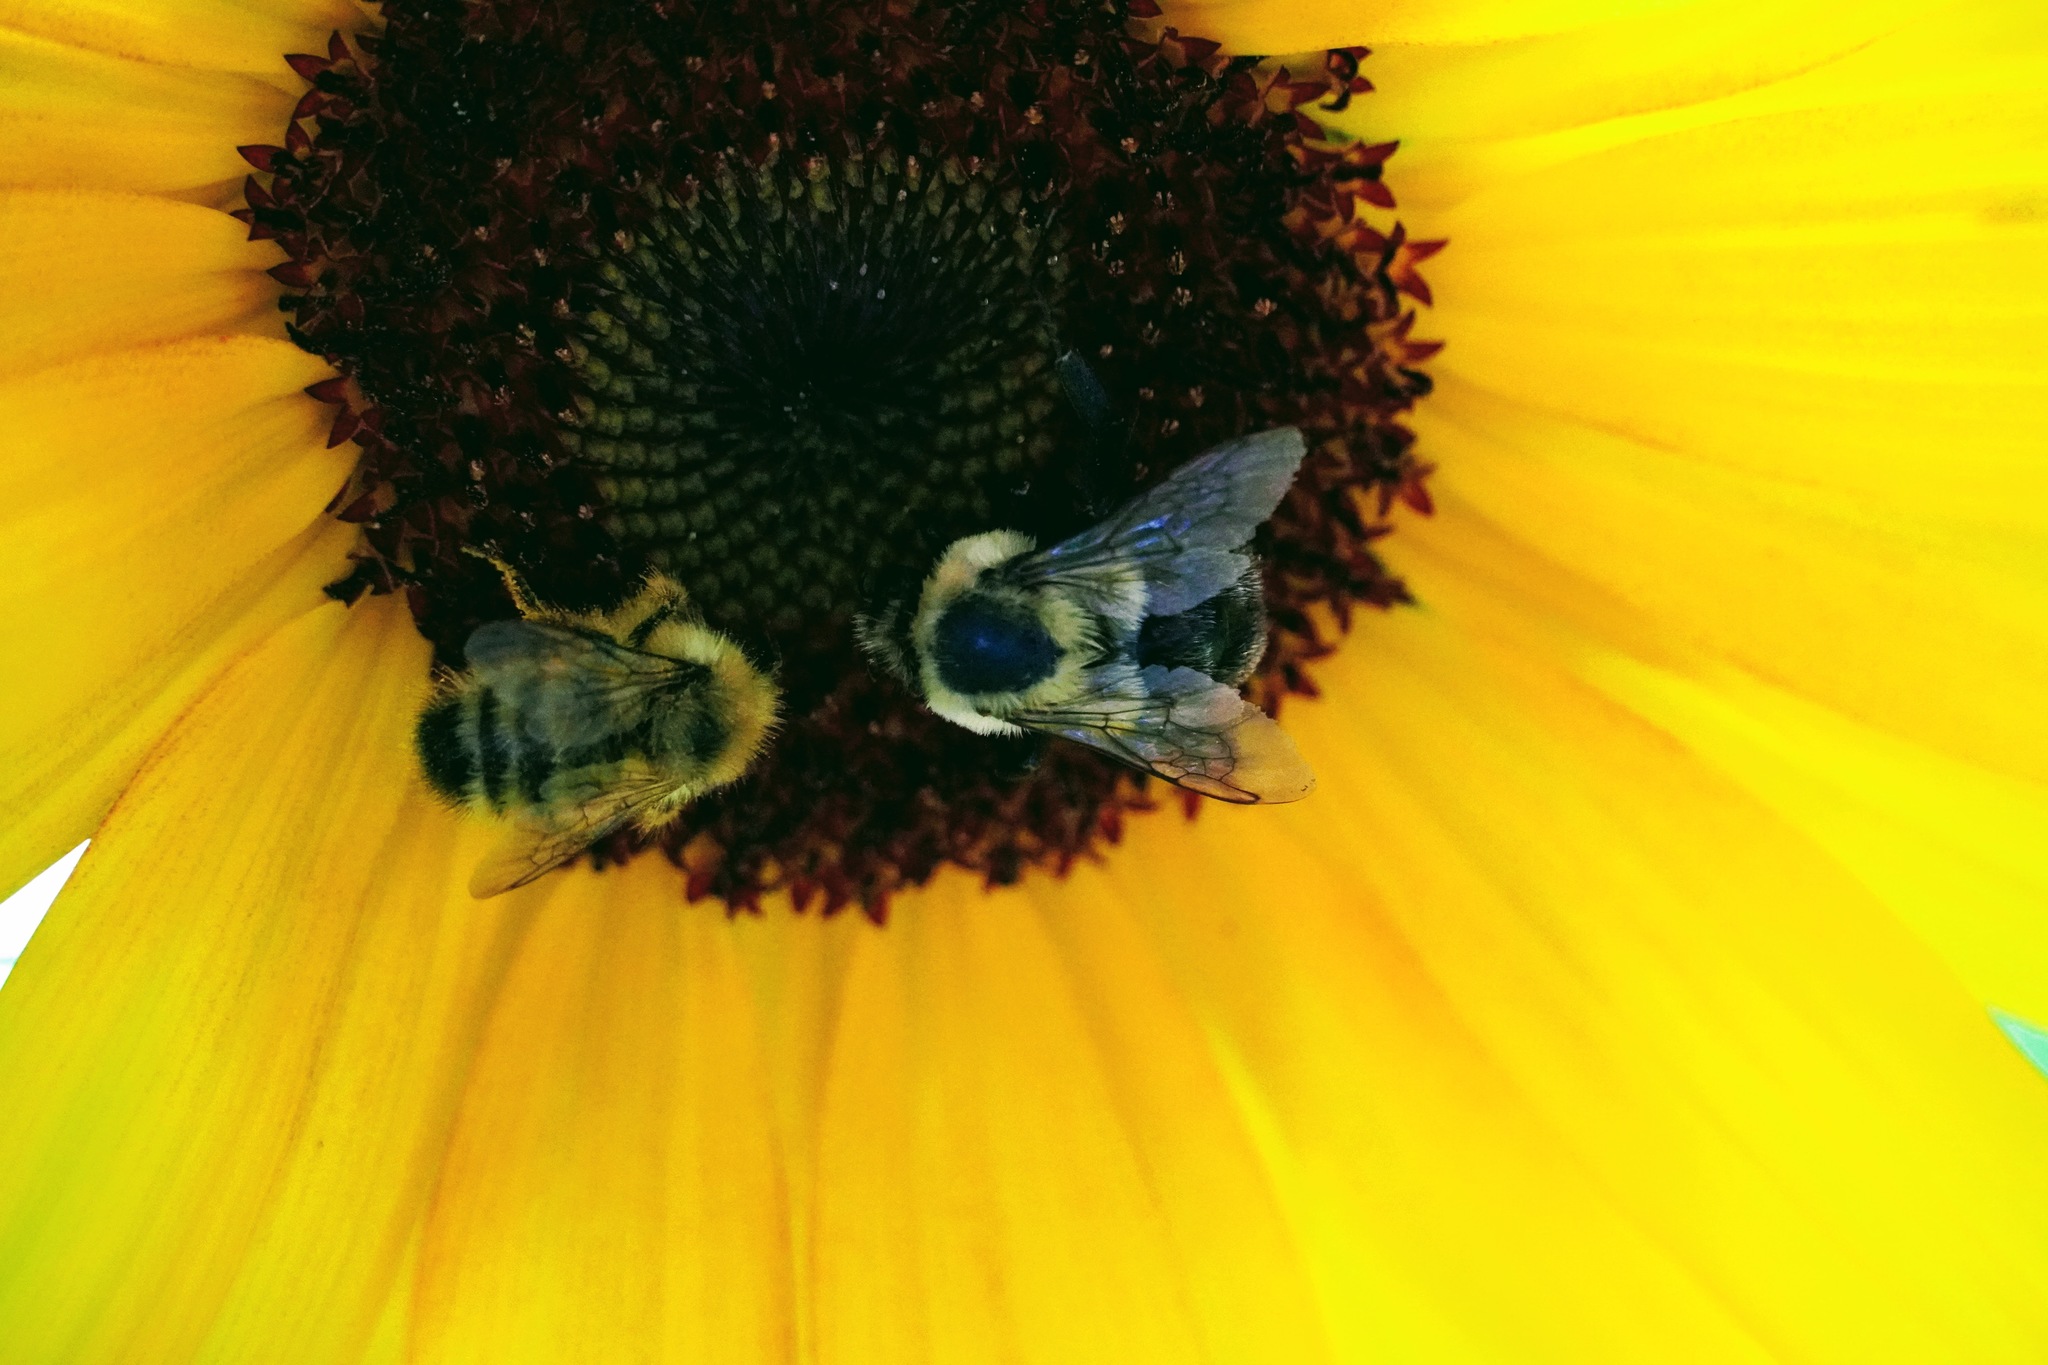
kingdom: Animalia
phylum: Arthropoda
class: Insecta
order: Hymenoptera
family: Apidae
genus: Bombus
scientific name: Bombus impatiens
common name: Common eastern bumble bee
